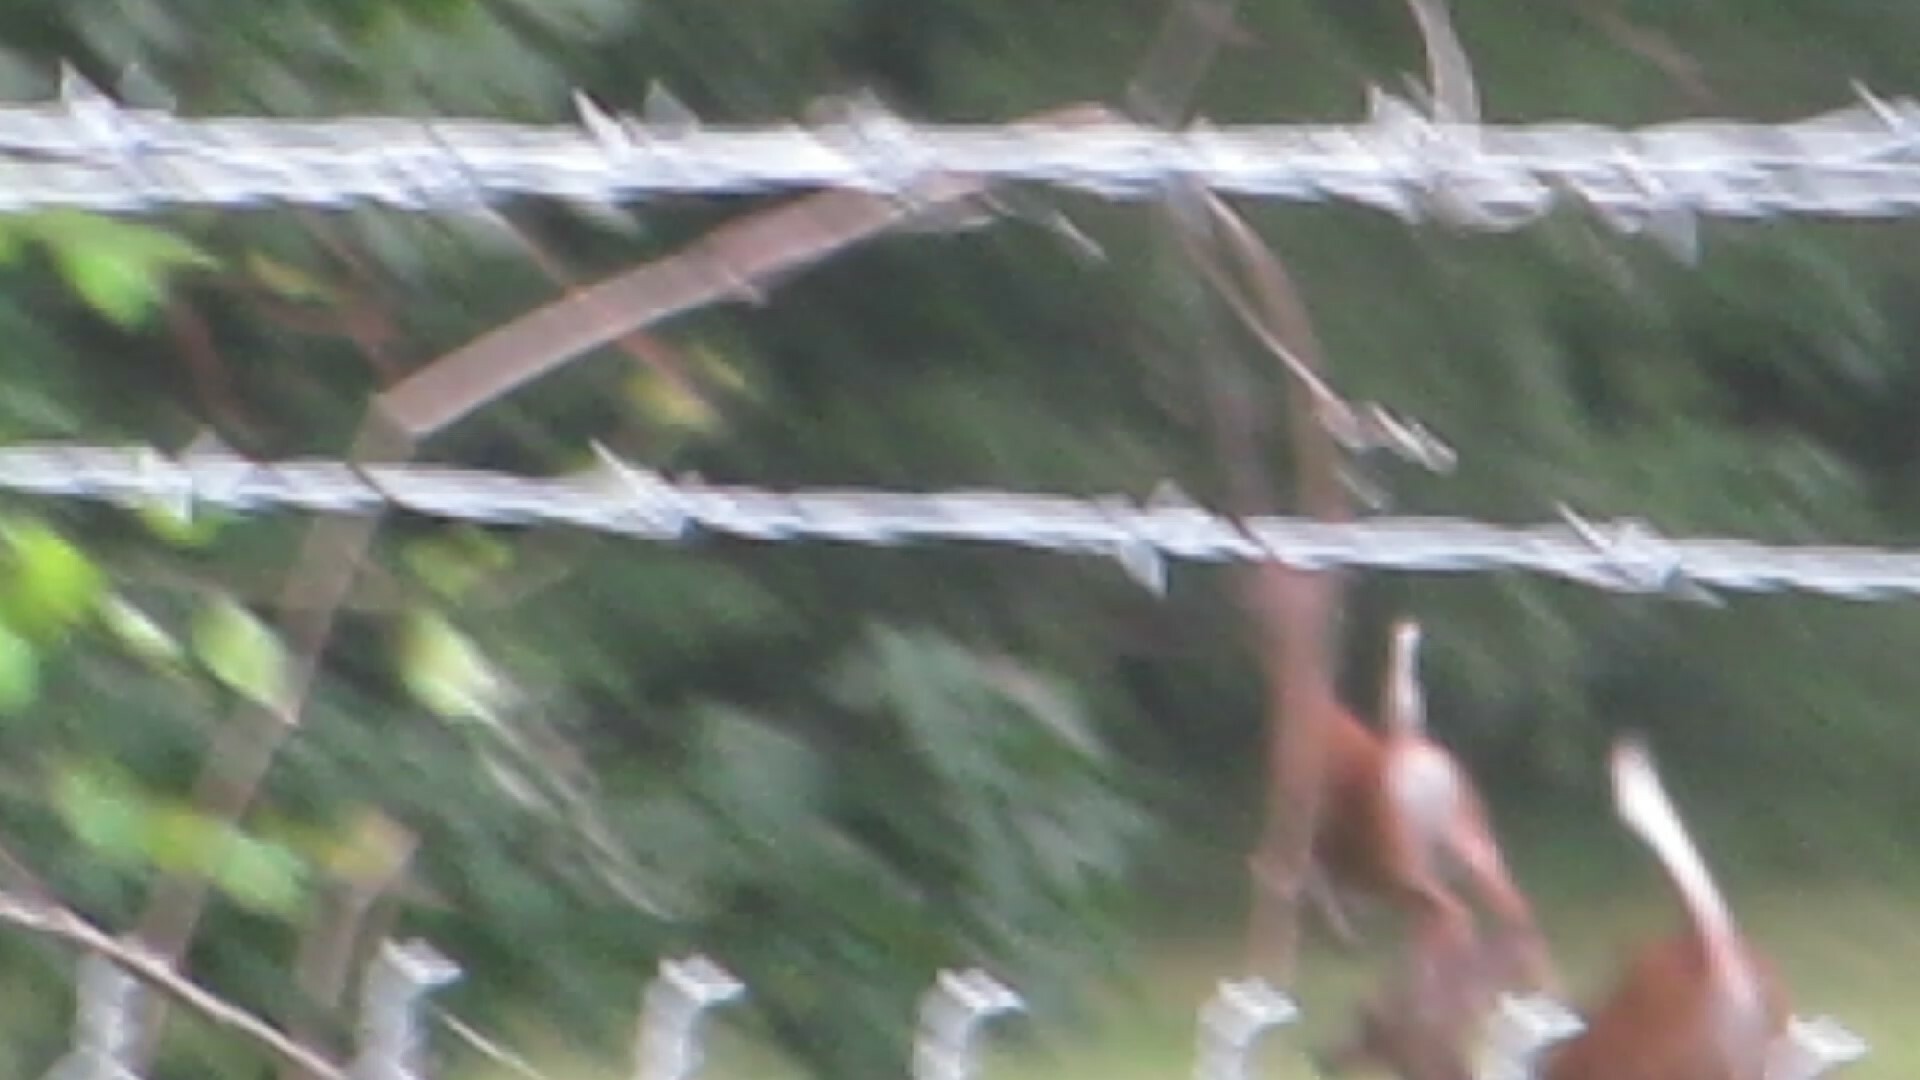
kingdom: Animalia
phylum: Chordata
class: Mammalia
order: Artiodactyla
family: Cervidae
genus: Odocoileus
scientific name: Odocoileus virginianus
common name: White-tailed deer
